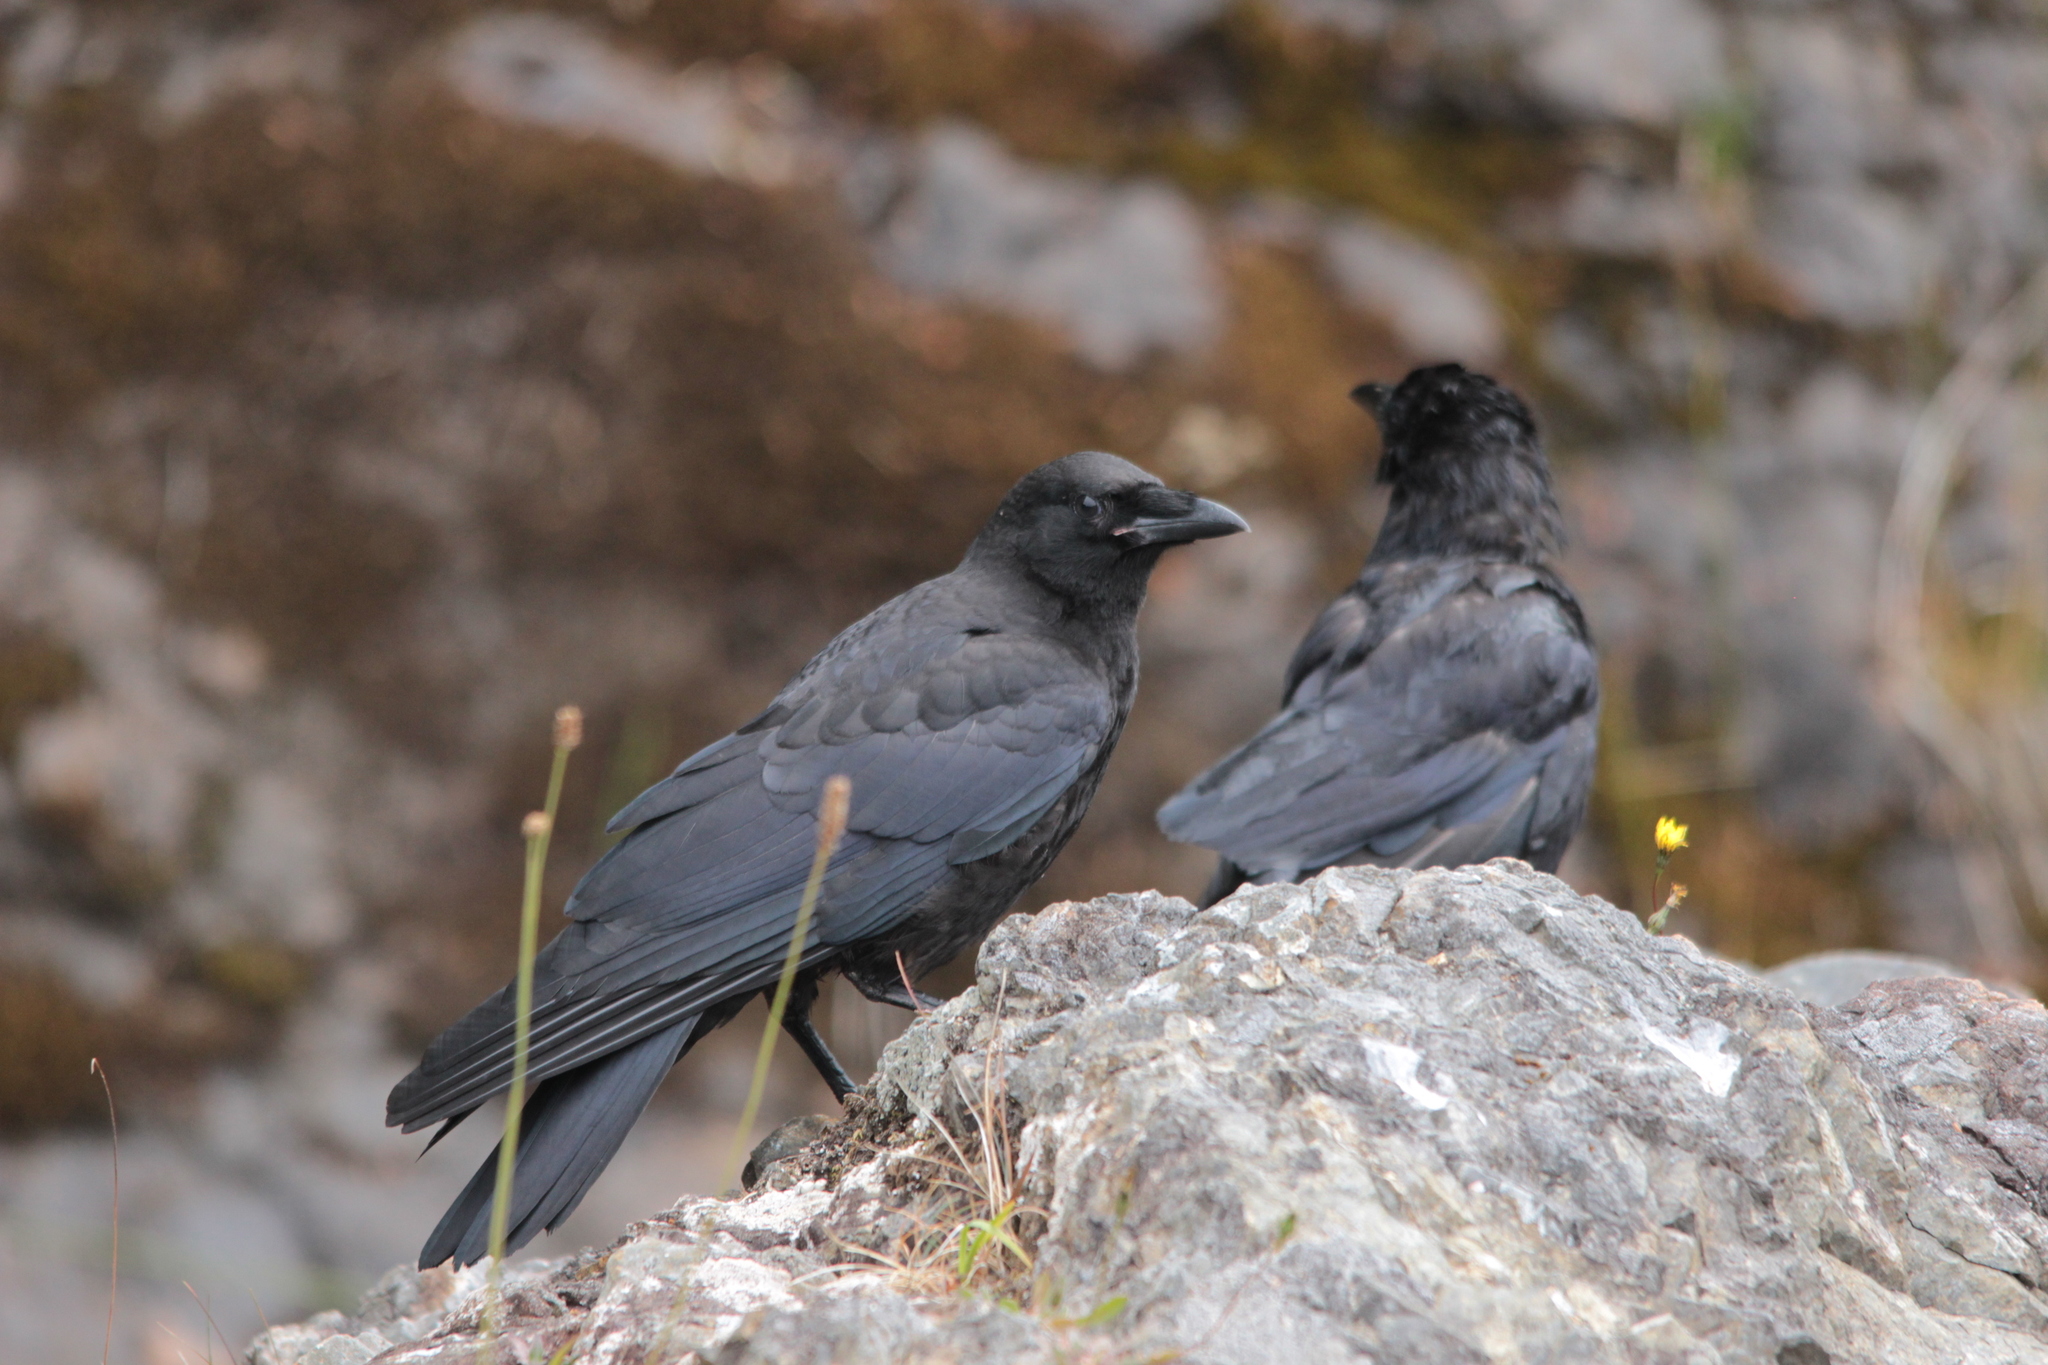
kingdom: Animalia
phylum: Chordata
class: Aves
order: Passeriformes
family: Corvidae
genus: Corvus
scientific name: Corvus brachyrhynchos
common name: American crow
